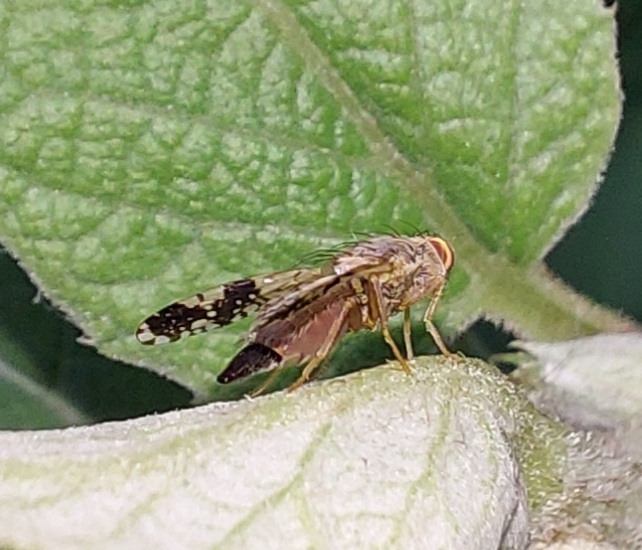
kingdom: Animalia
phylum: Arthropoda
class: Insecta
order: Diptera
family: Tephritidae
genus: Tephritis
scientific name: Tephritis bardanae
